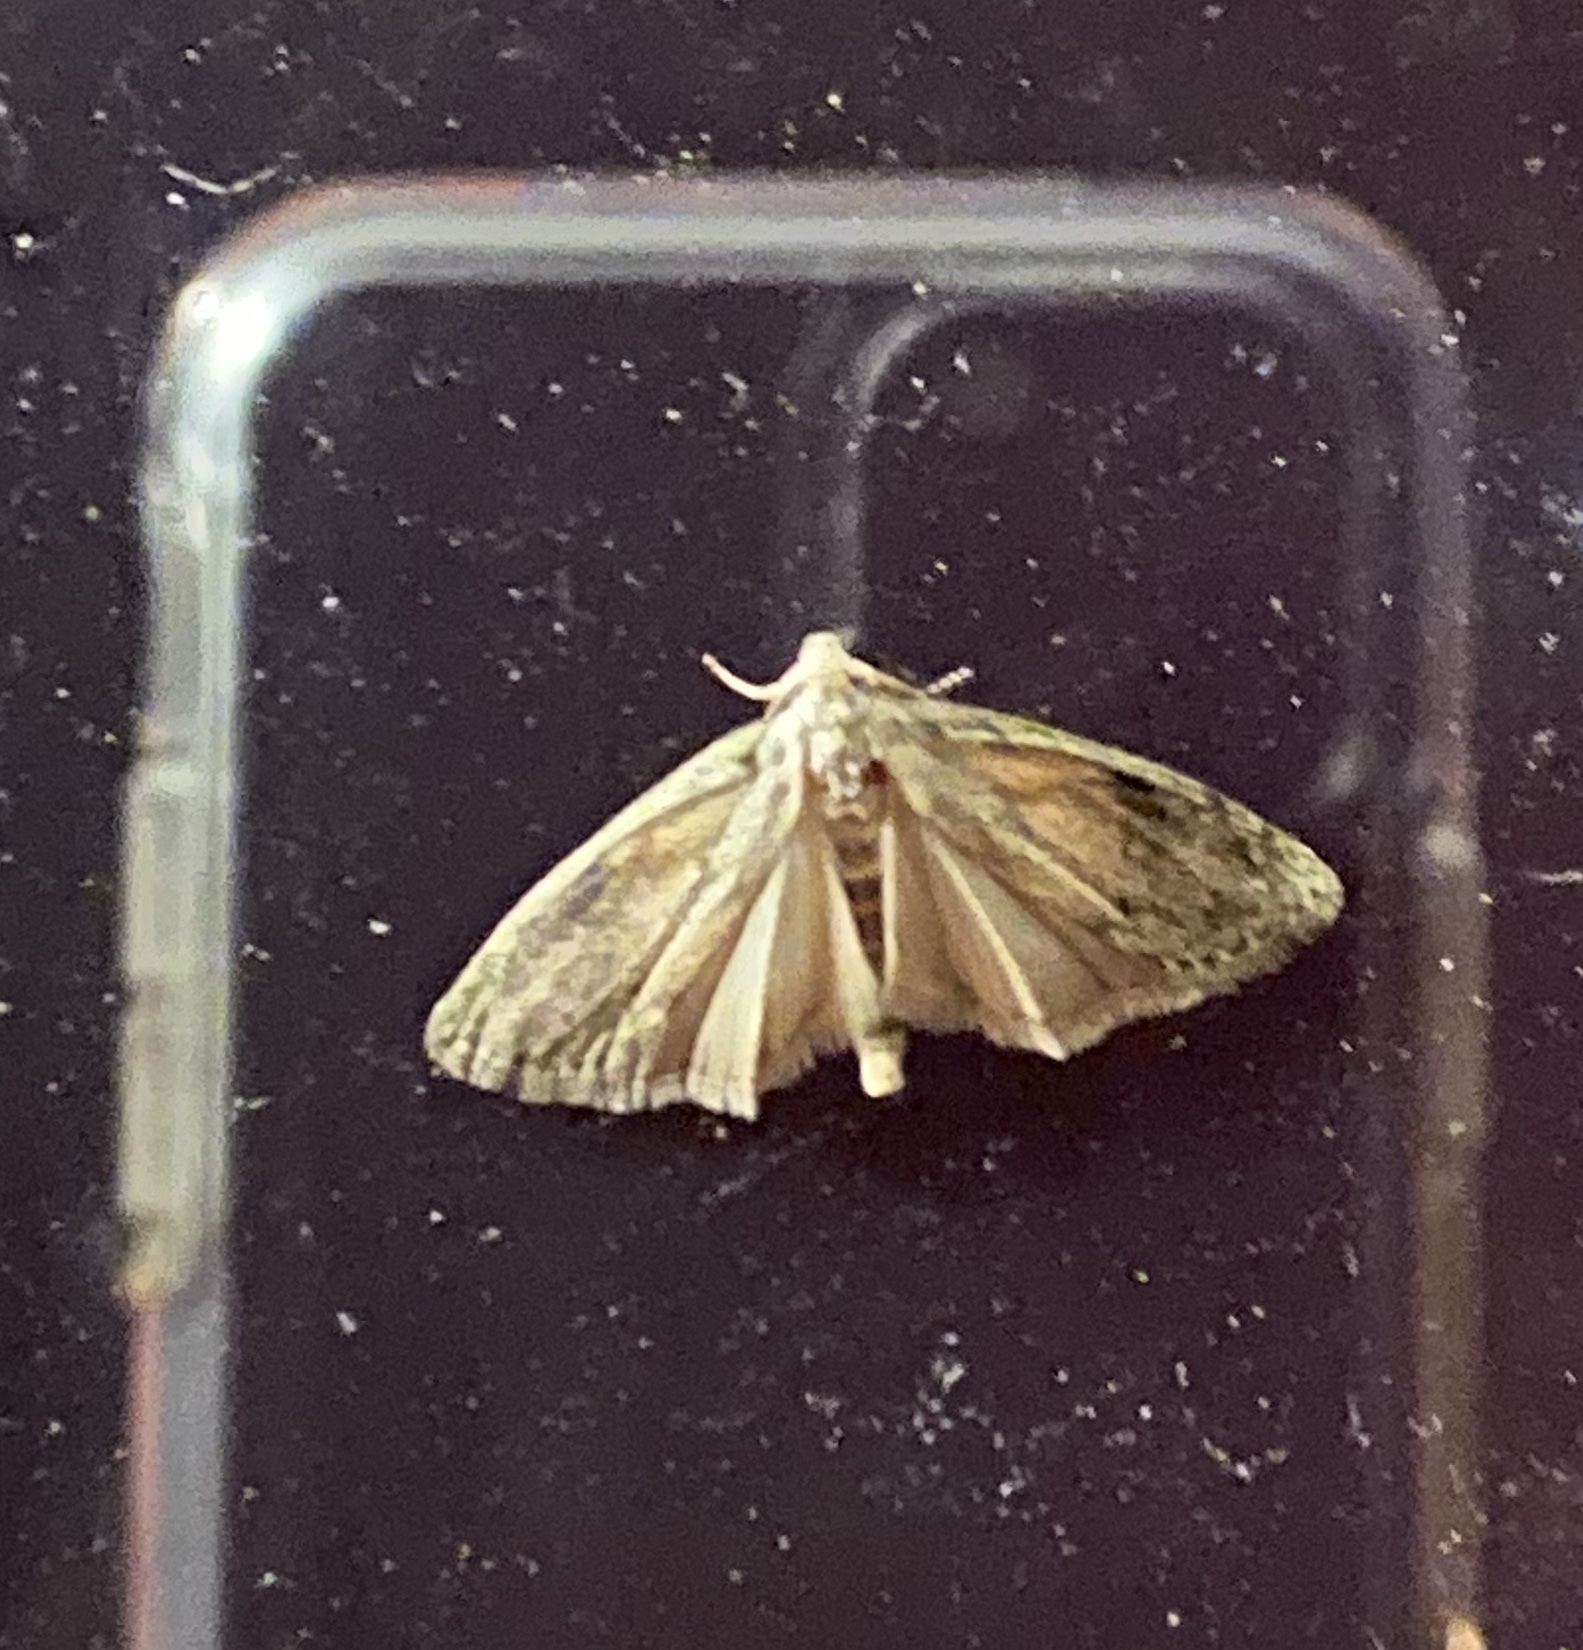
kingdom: Animalia
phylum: Arthropoda
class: Insecta
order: Lepidoptera
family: Geometridae
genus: Paleacrita
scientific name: Paleacrita vernata
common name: Spring cankerworm
